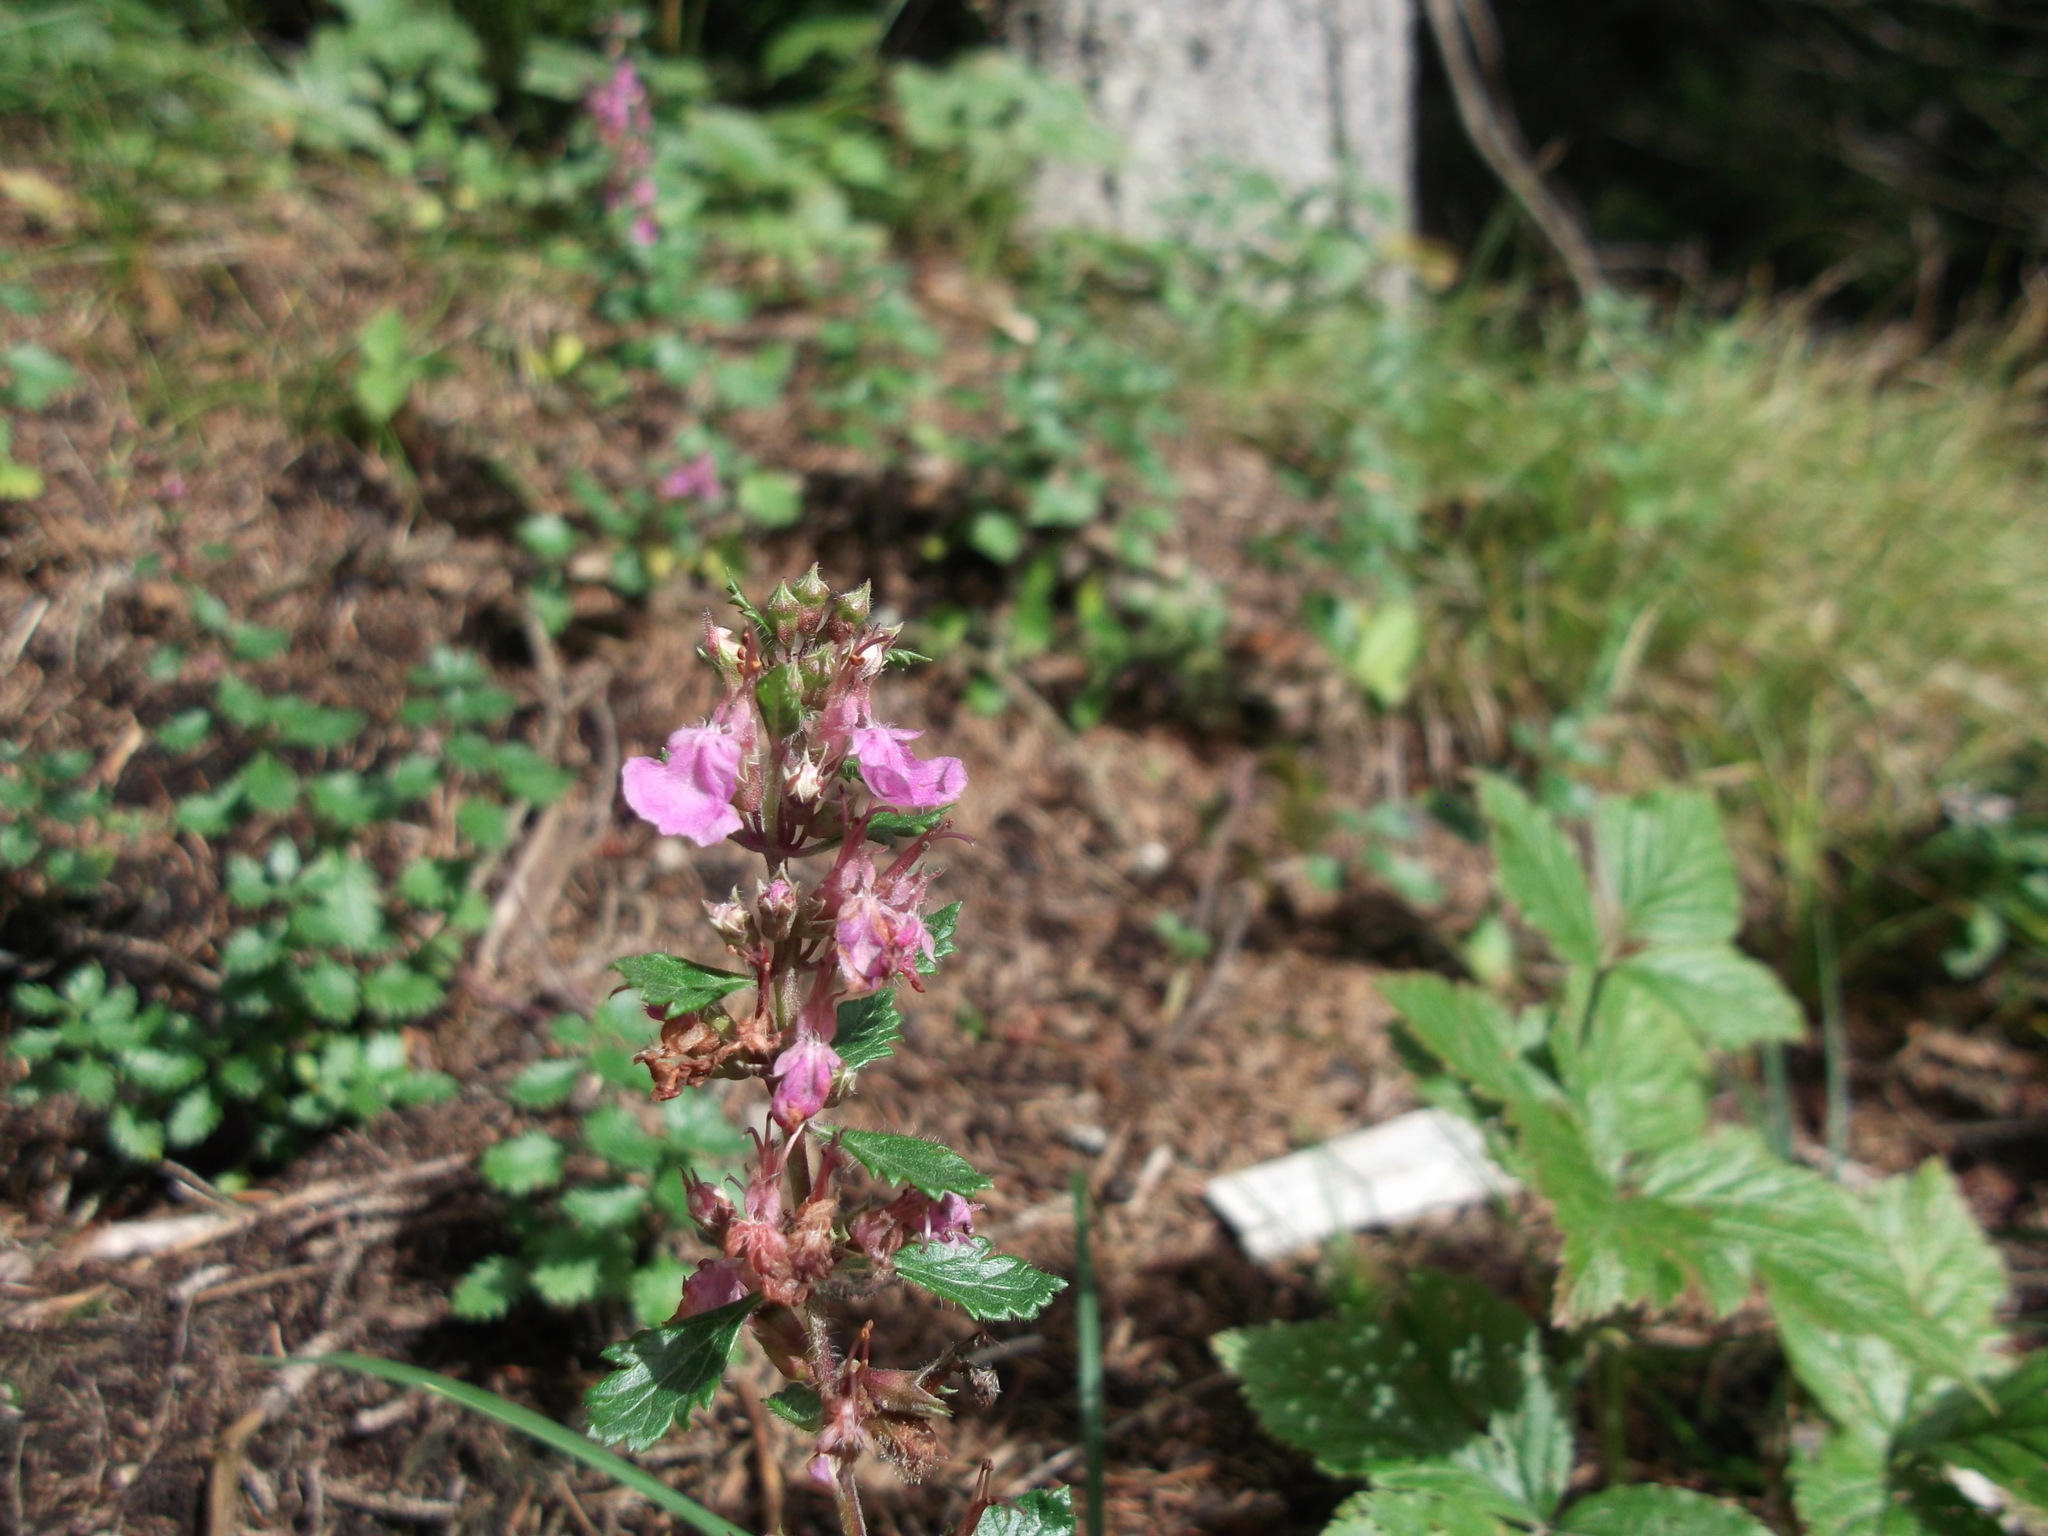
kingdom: Plantae
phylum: Tracheophyta
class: Magnoliopsida
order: Lamiales
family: Lamiaceae
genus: Teucrium
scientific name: Teucrium chamaedrys
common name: Wall germander
